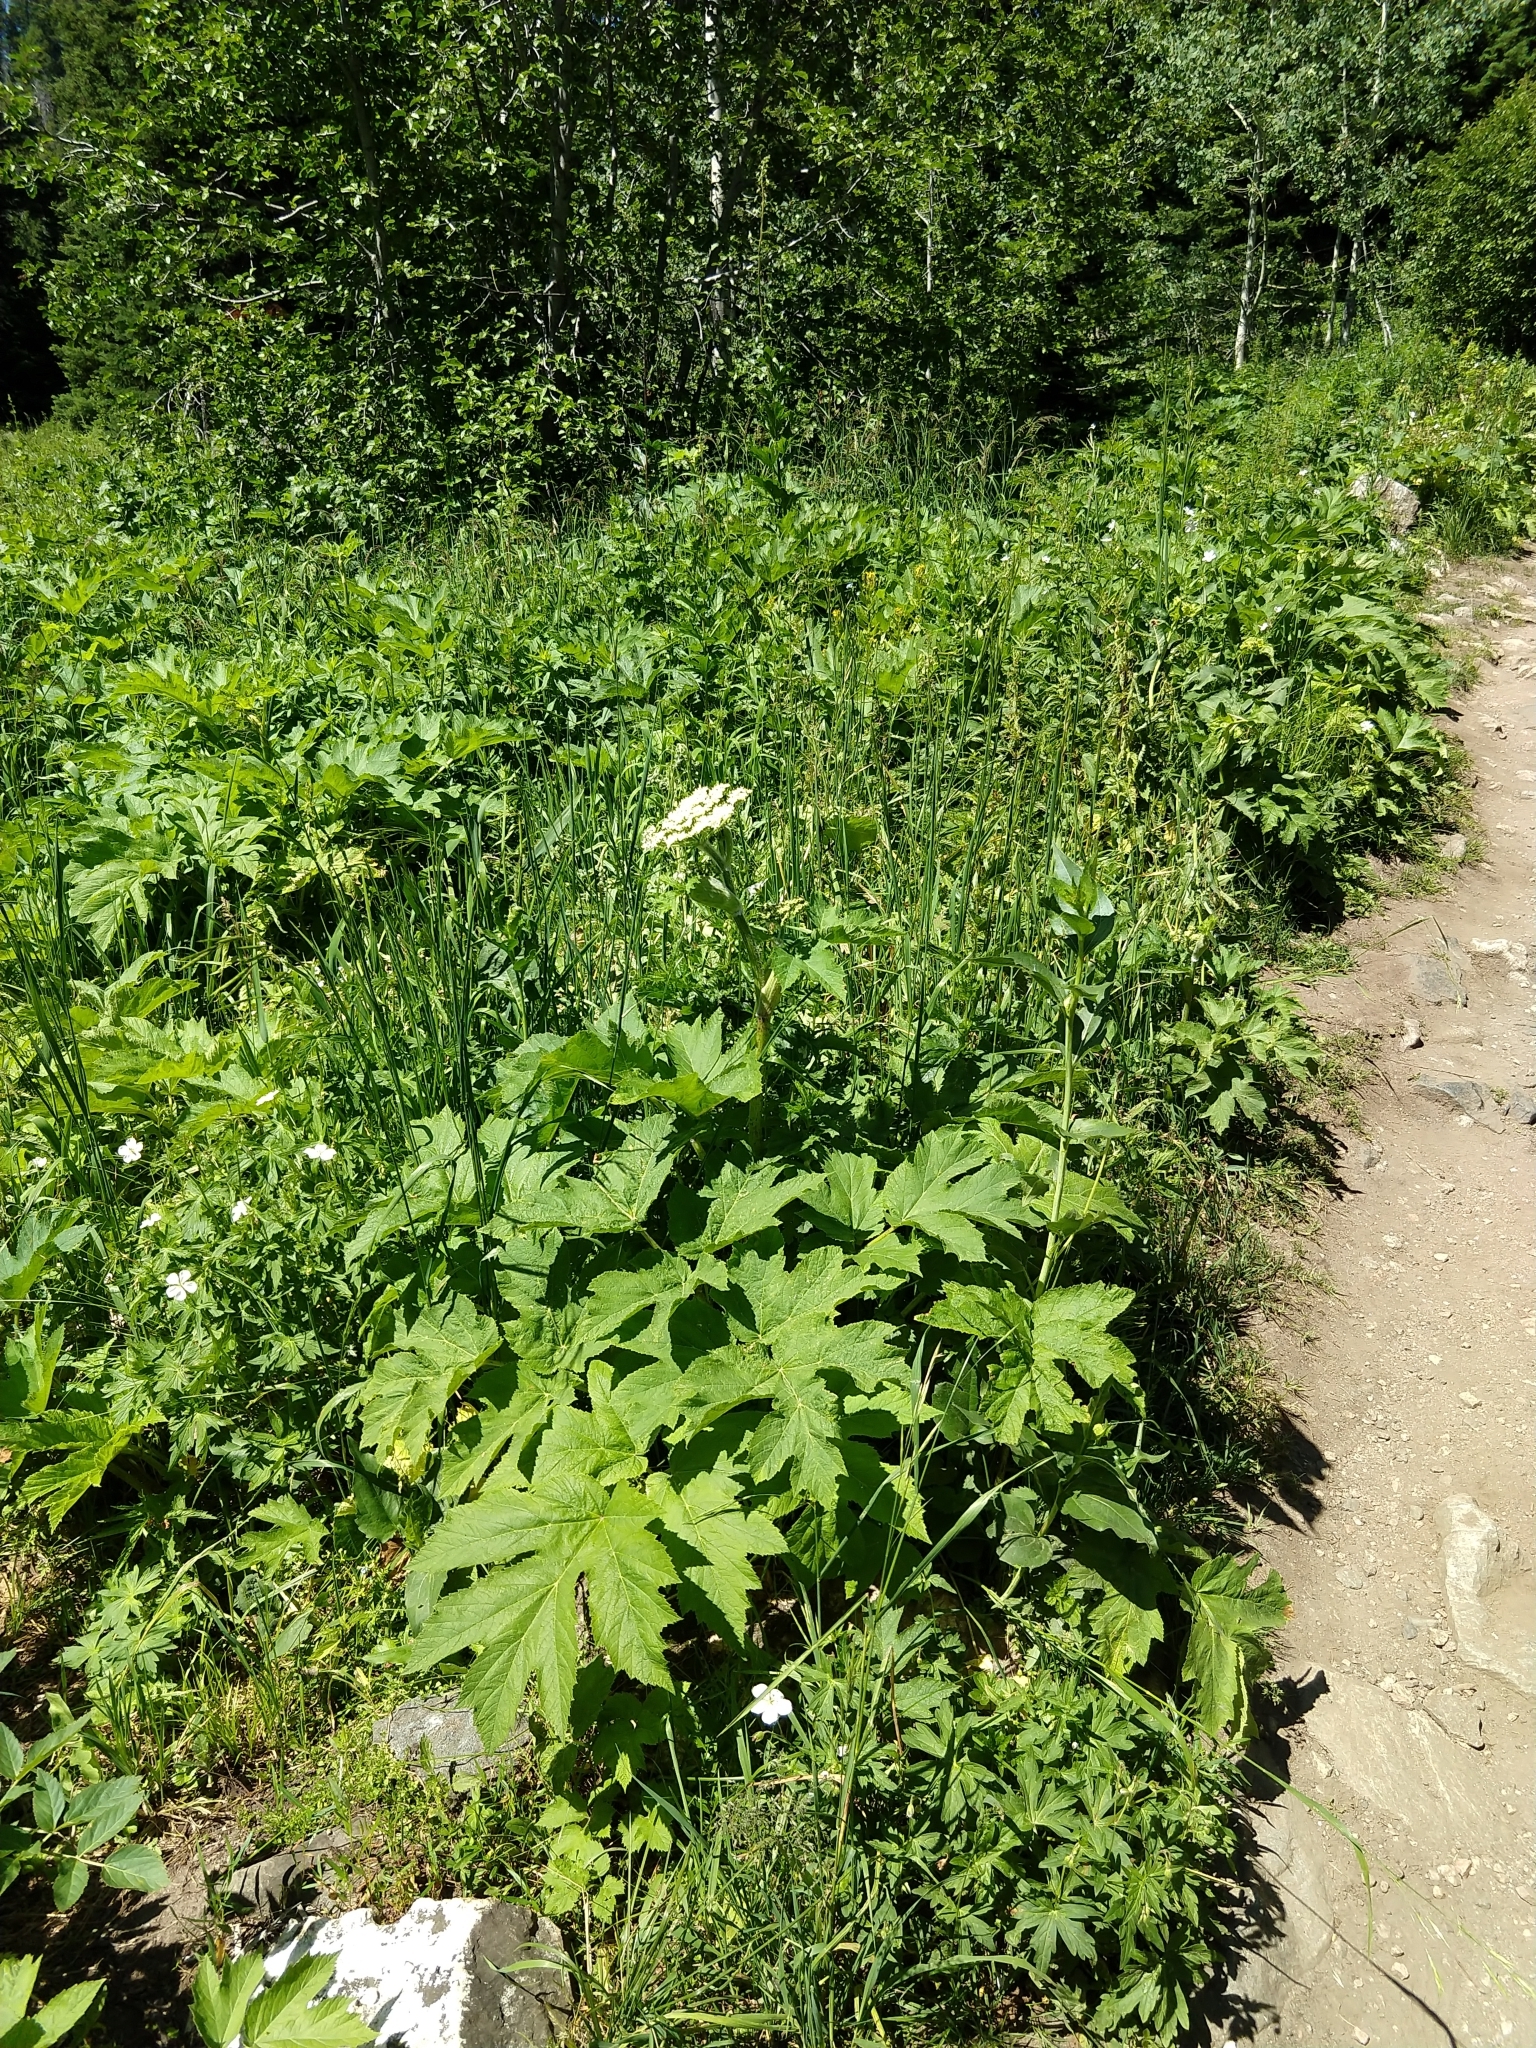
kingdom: Plantae
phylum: Tracheophyta
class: Magnoliopsida
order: Apiales
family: Apiaceae
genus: Heracleum
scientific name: Heracleum maximum
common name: American cow parsnip
